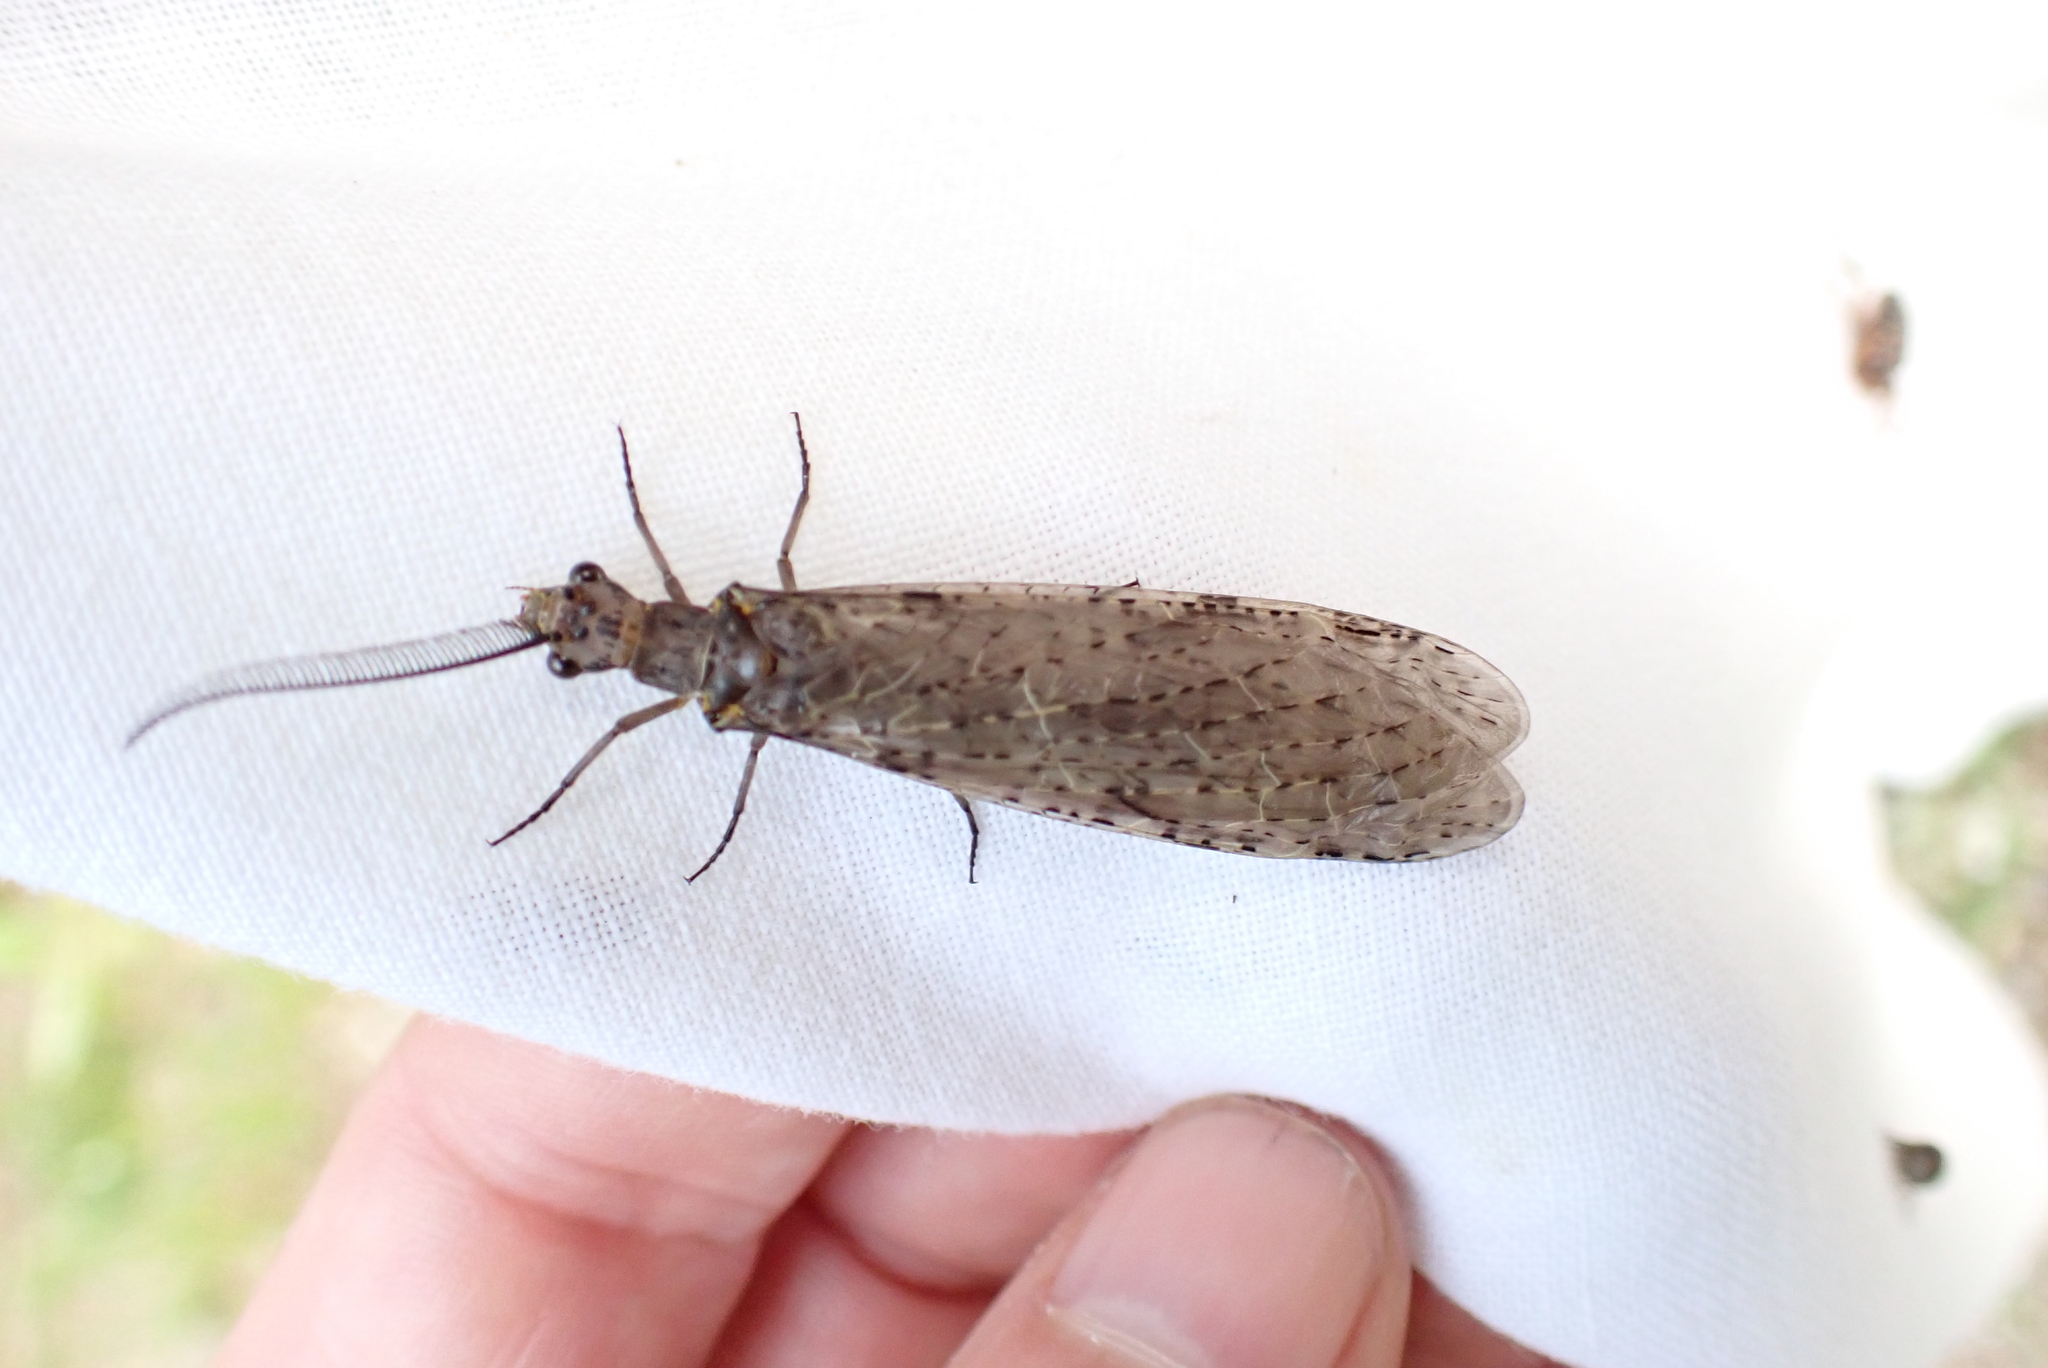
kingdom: Animalia
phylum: Arthropoda
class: Insecta
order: Megaloptera
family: Corydalidae
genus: Chauliodes
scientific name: Chauliodes rastricornis
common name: Spring fishfly
